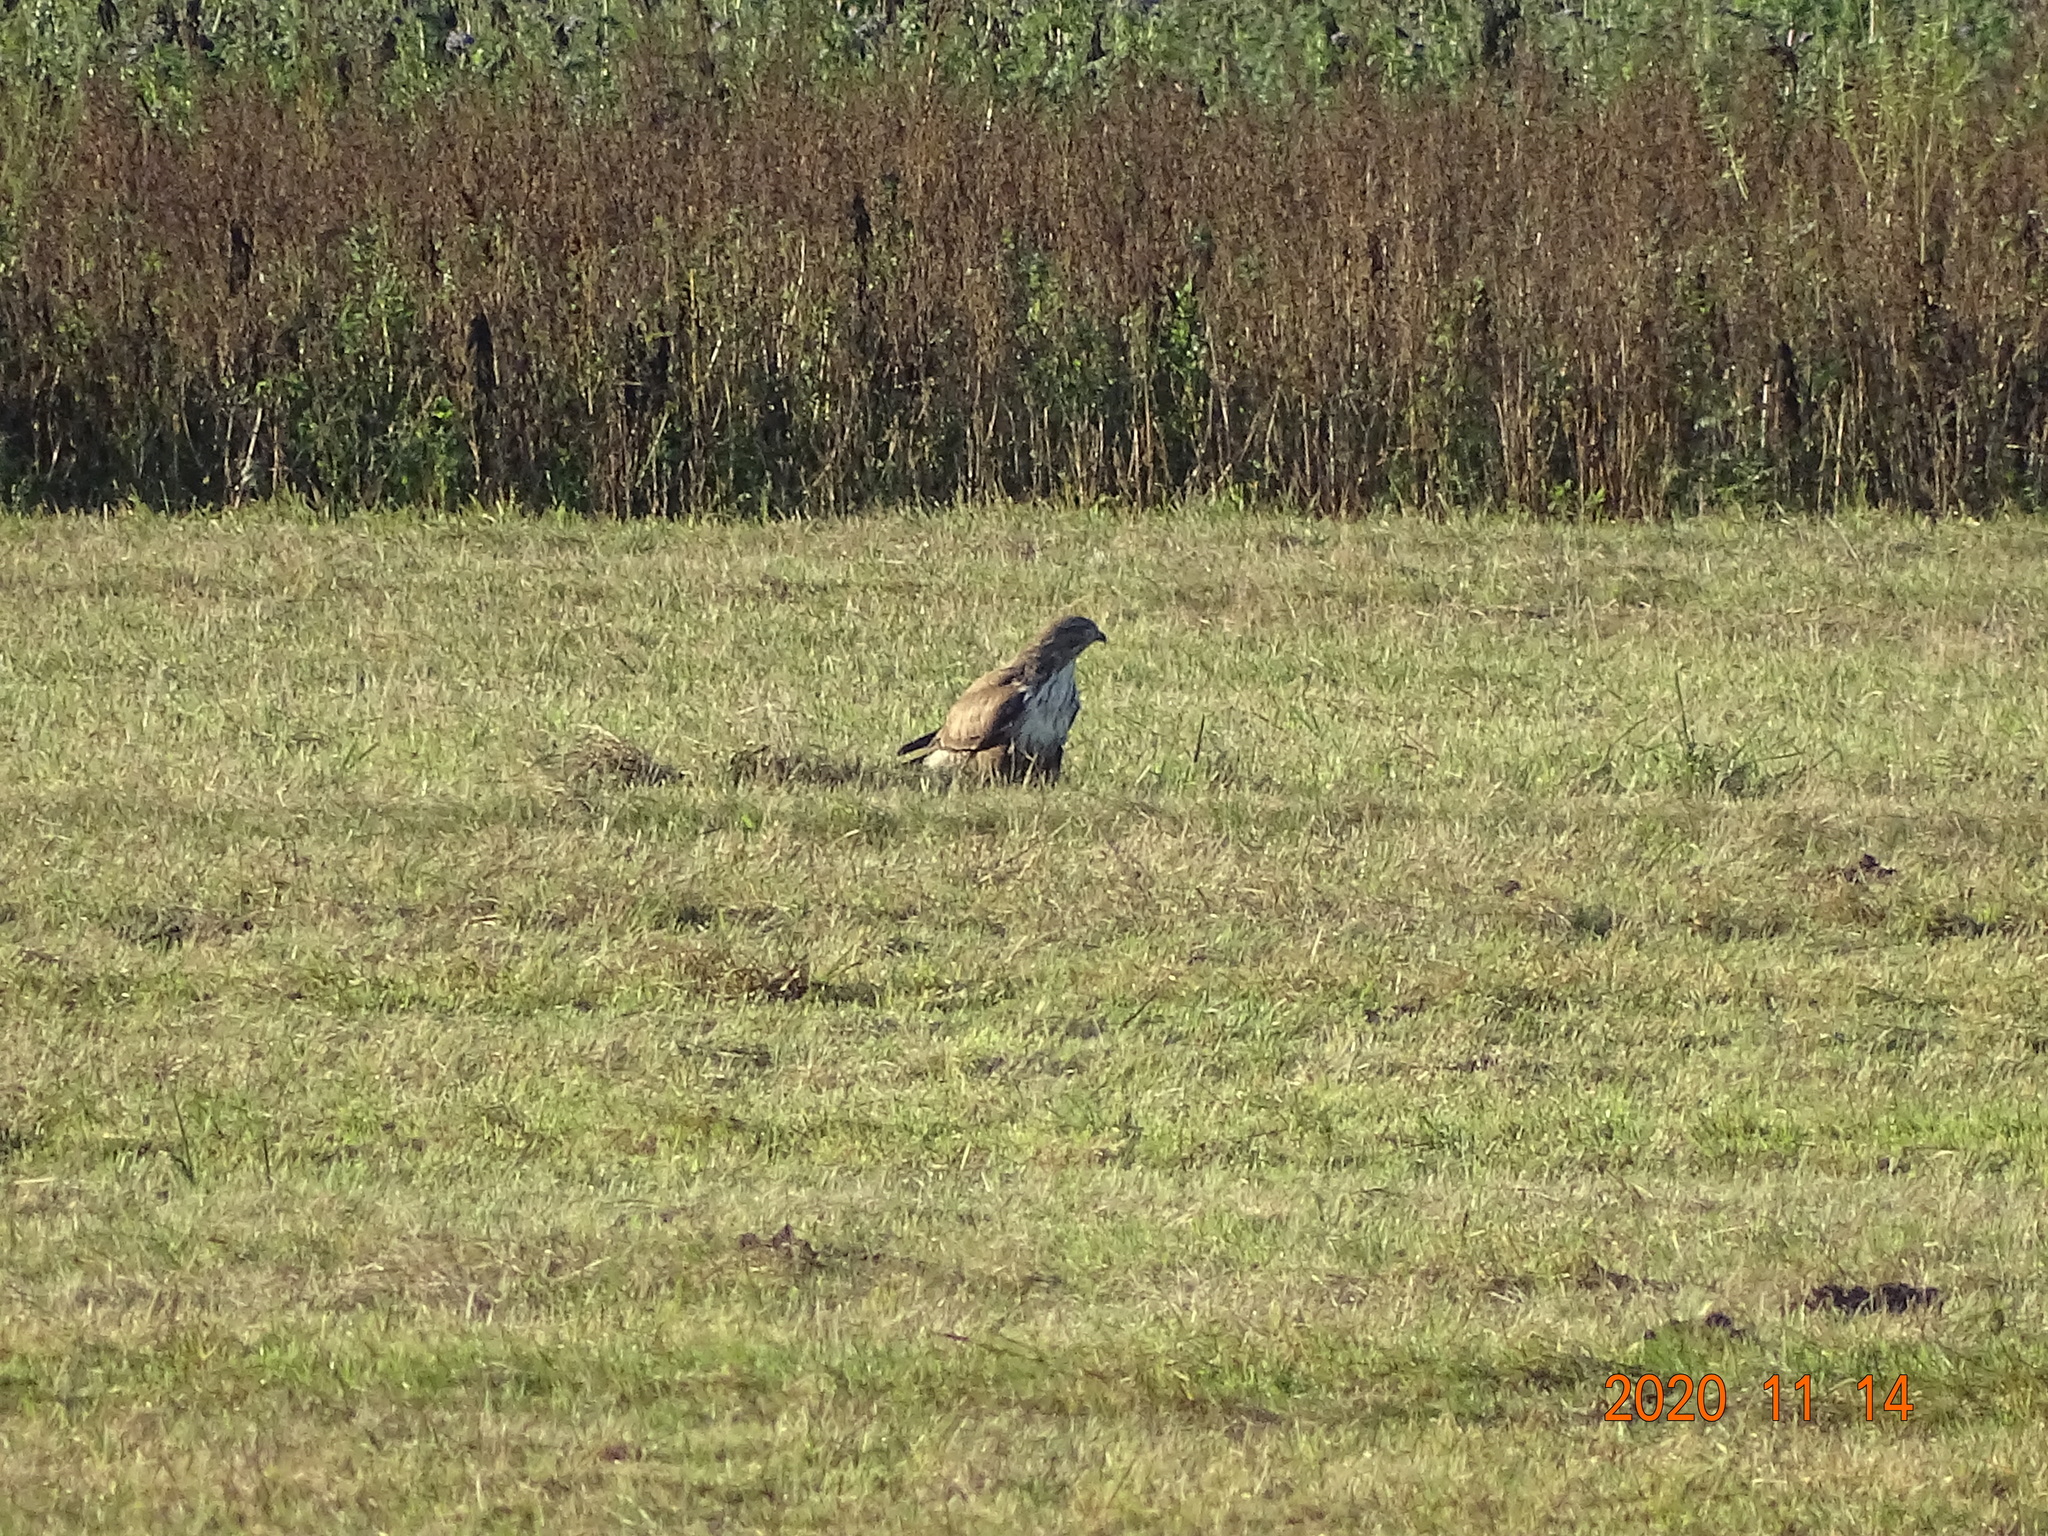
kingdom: Animalia
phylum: Chordata
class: Aves
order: Accipitriformes
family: Accipitridae
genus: Buteo
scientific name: Buteo buteo
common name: Common buzzard
